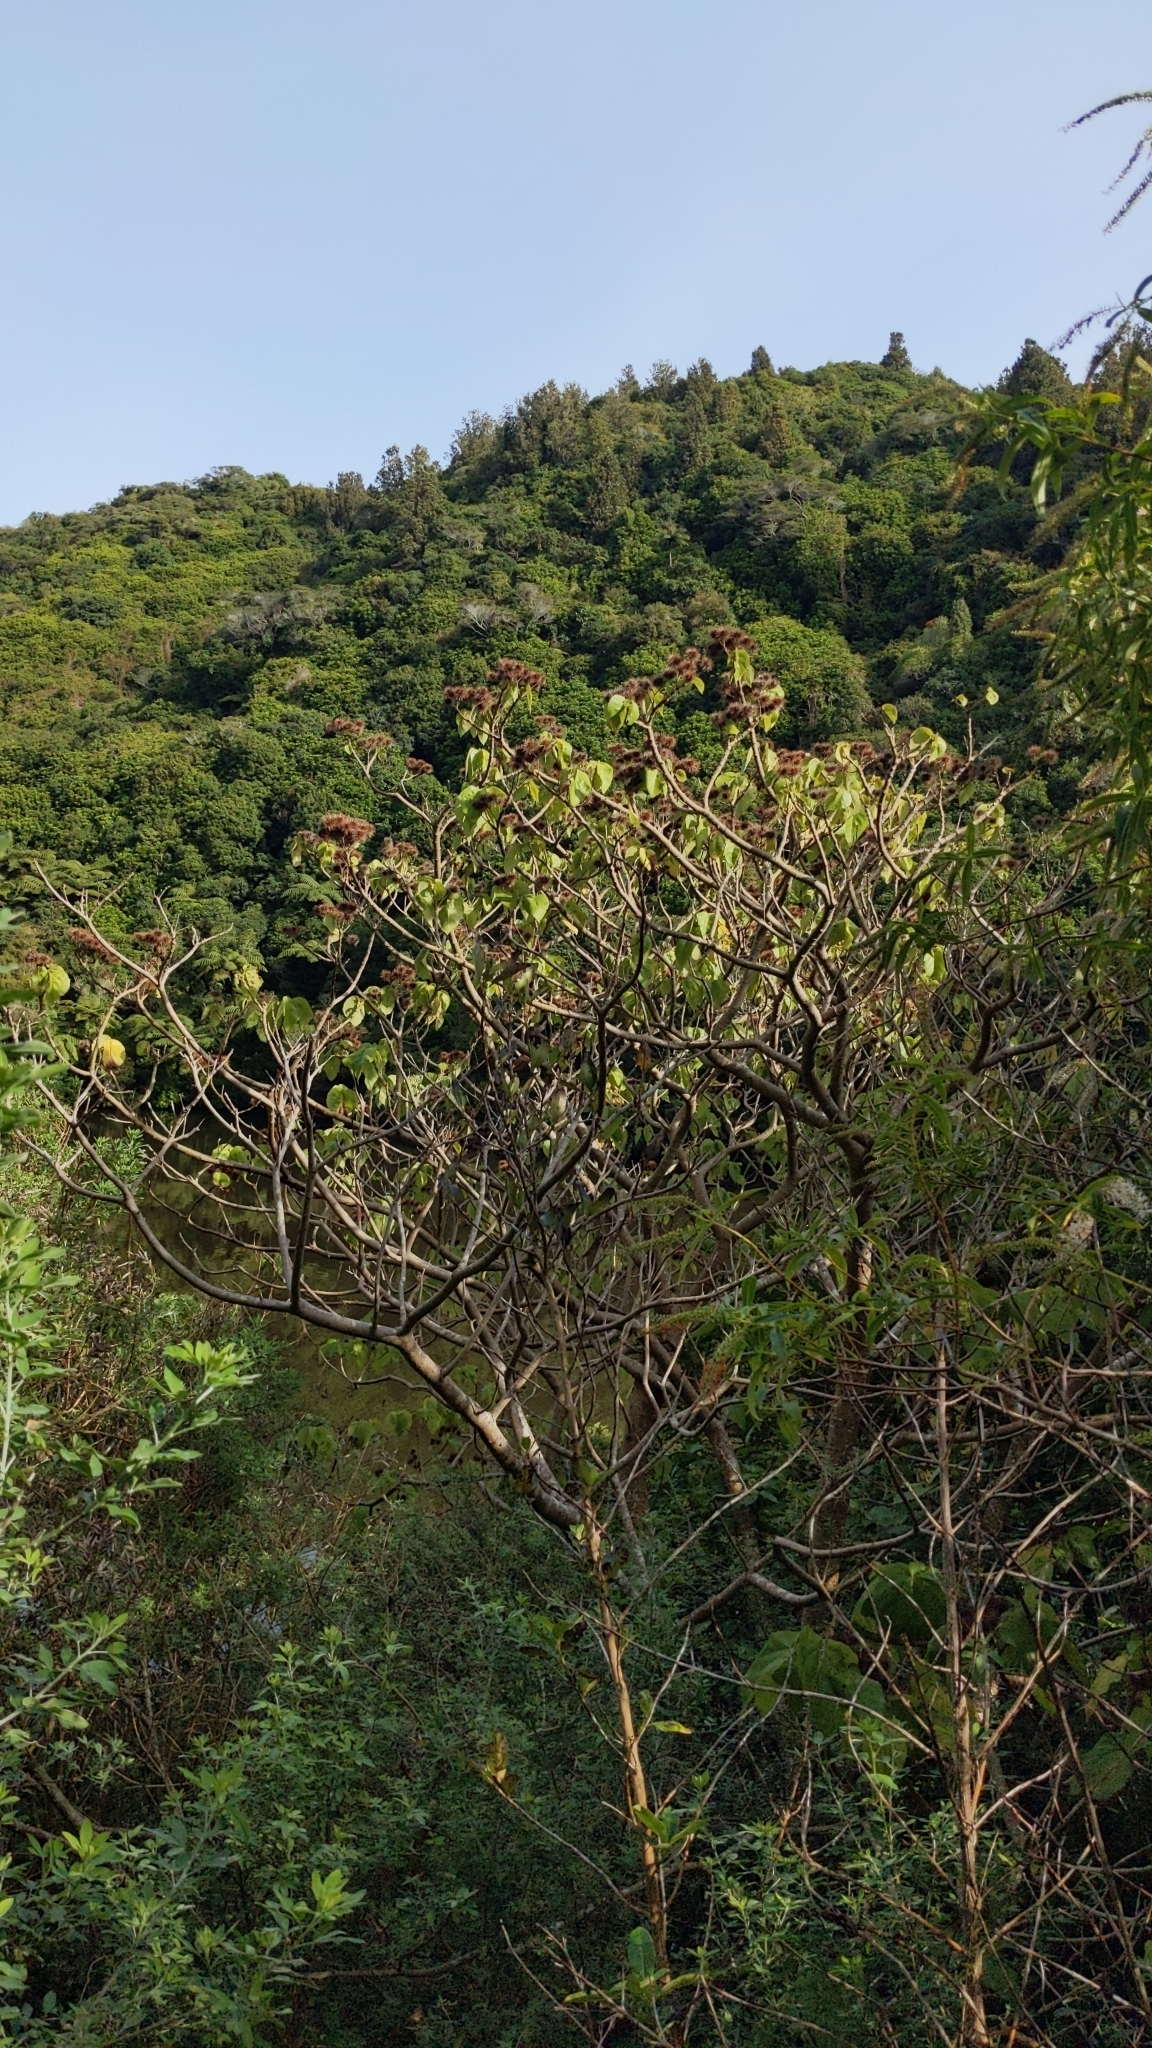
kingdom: Plantae
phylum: Tracheophyta
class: Magnoliopsida
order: Malvales
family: Malvaceae
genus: Entelea
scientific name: Entelea arborescens
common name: New zealand-mulberry
